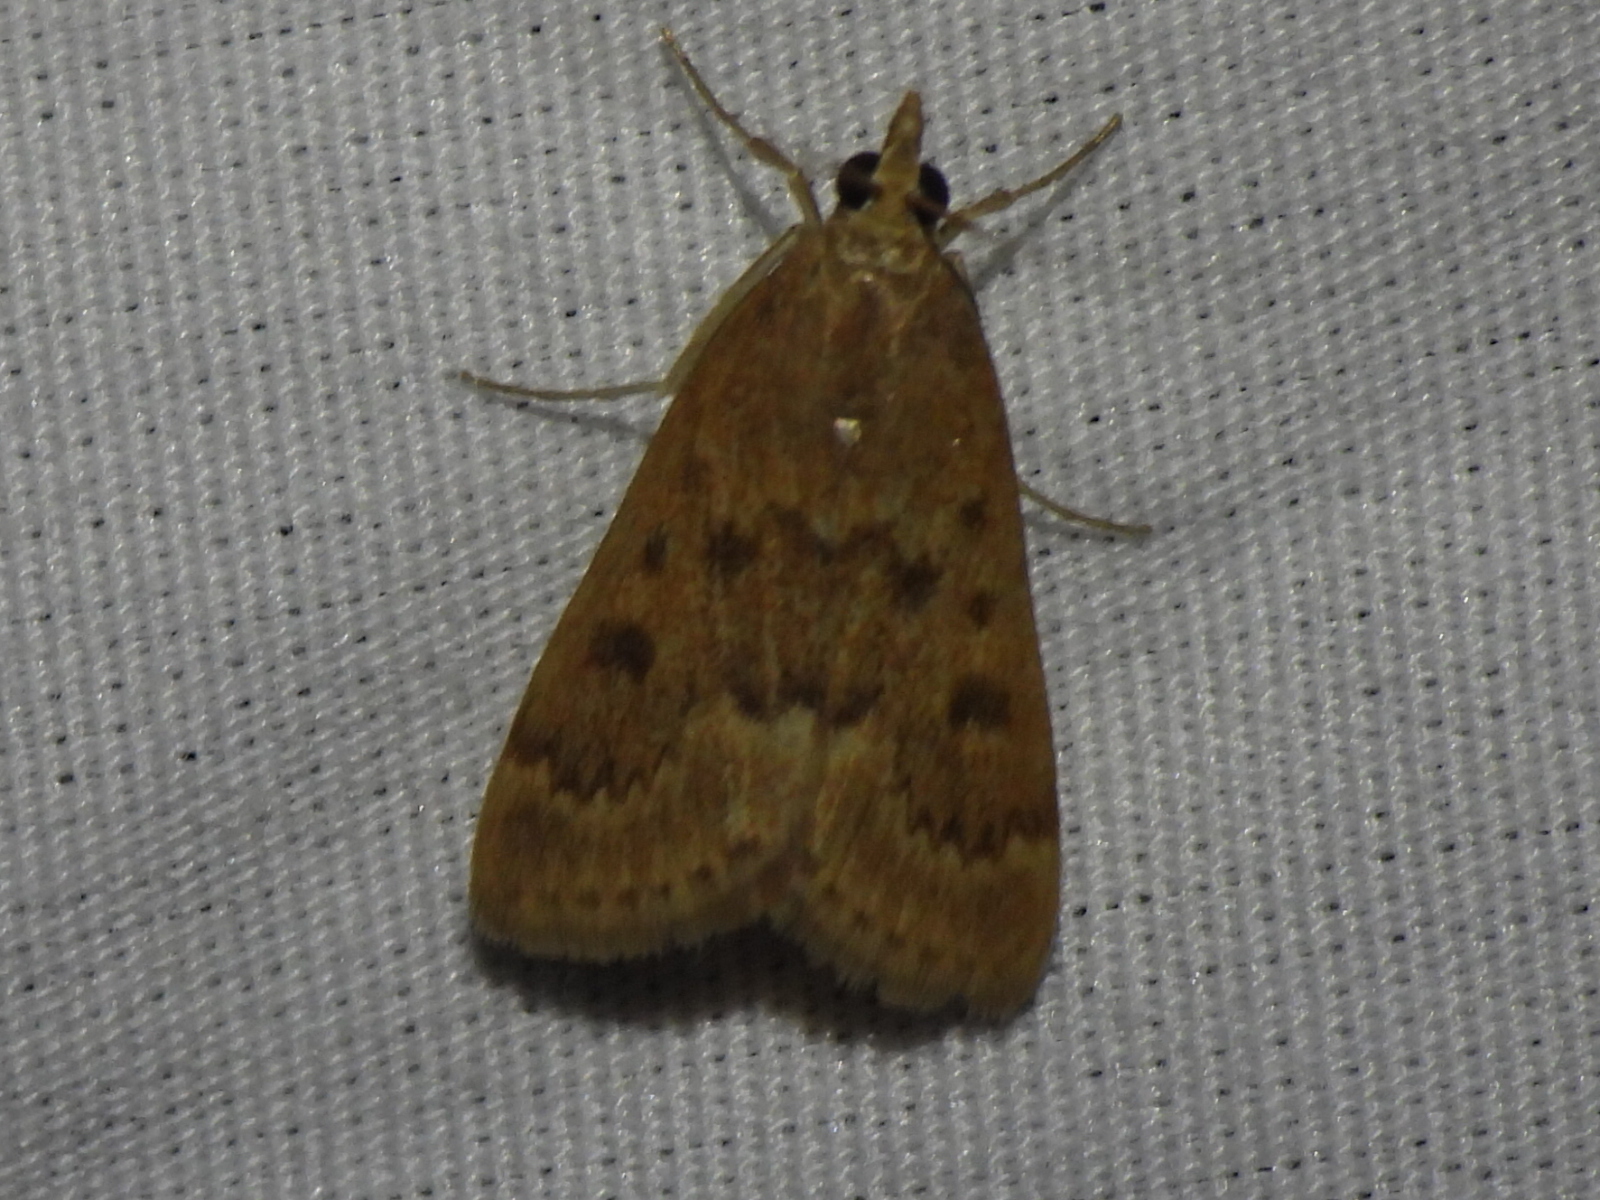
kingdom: Animalia
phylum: Arthropoda
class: Insecta
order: Lepidoptera
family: Crambidae
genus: Achyra
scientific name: Achyra rantalis
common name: Garden webworm
